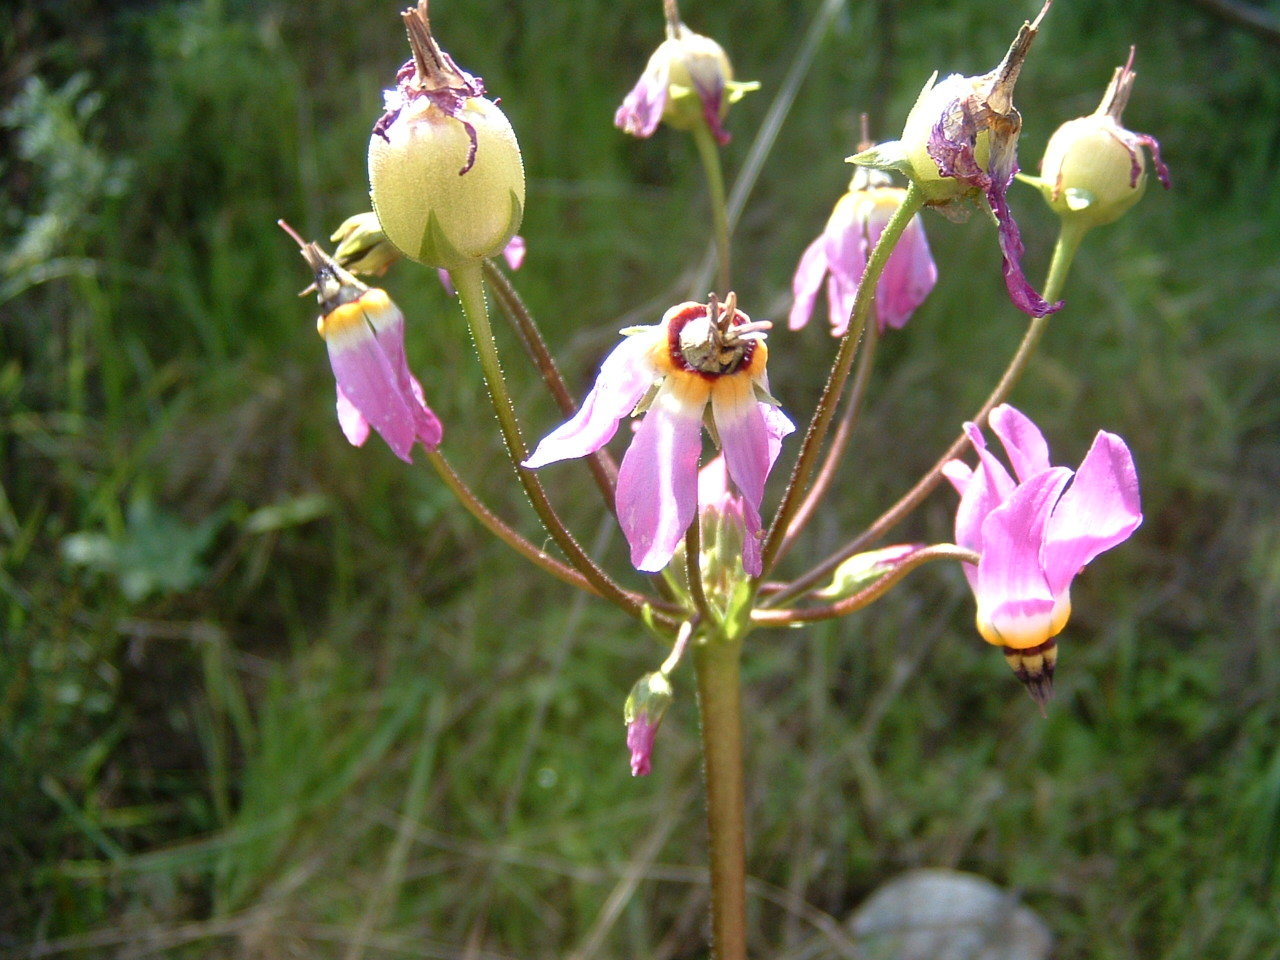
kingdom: Plantae
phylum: Tracheophyta
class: Magnoliopsida
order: Ericales
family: Primulaceae
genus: Dodecatheon
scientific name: Dodecatheon clevelandii
